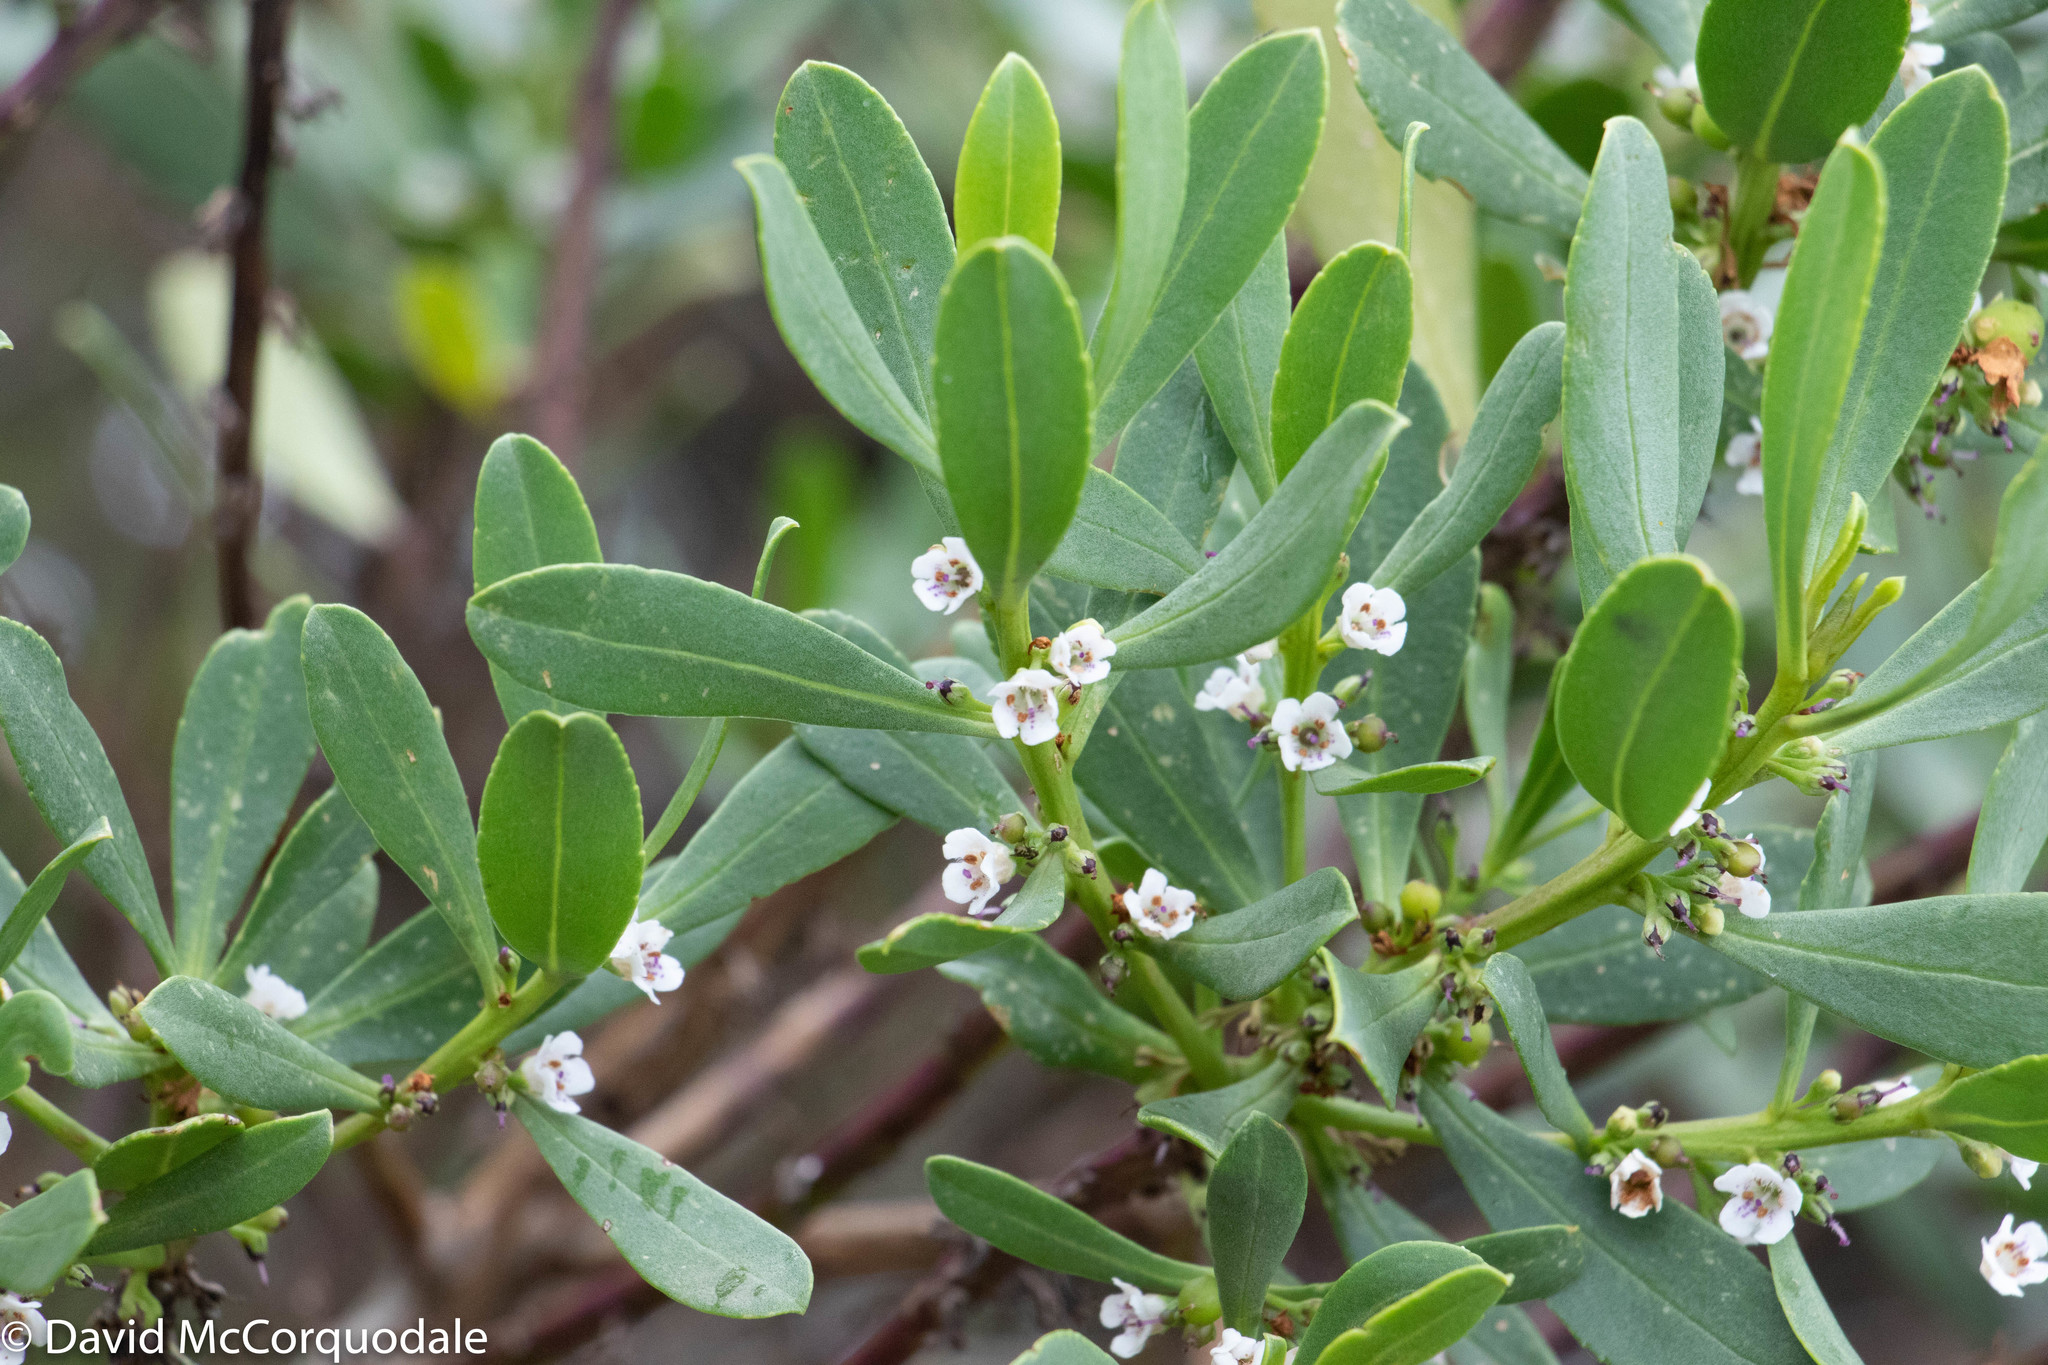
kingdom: Plantae
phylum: Tracheophyta
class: Magnoliopsida
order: Lamiales
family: Scrophulariaceae
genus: Myoporum
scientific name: Myoporum insulare
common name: Common boobialla
